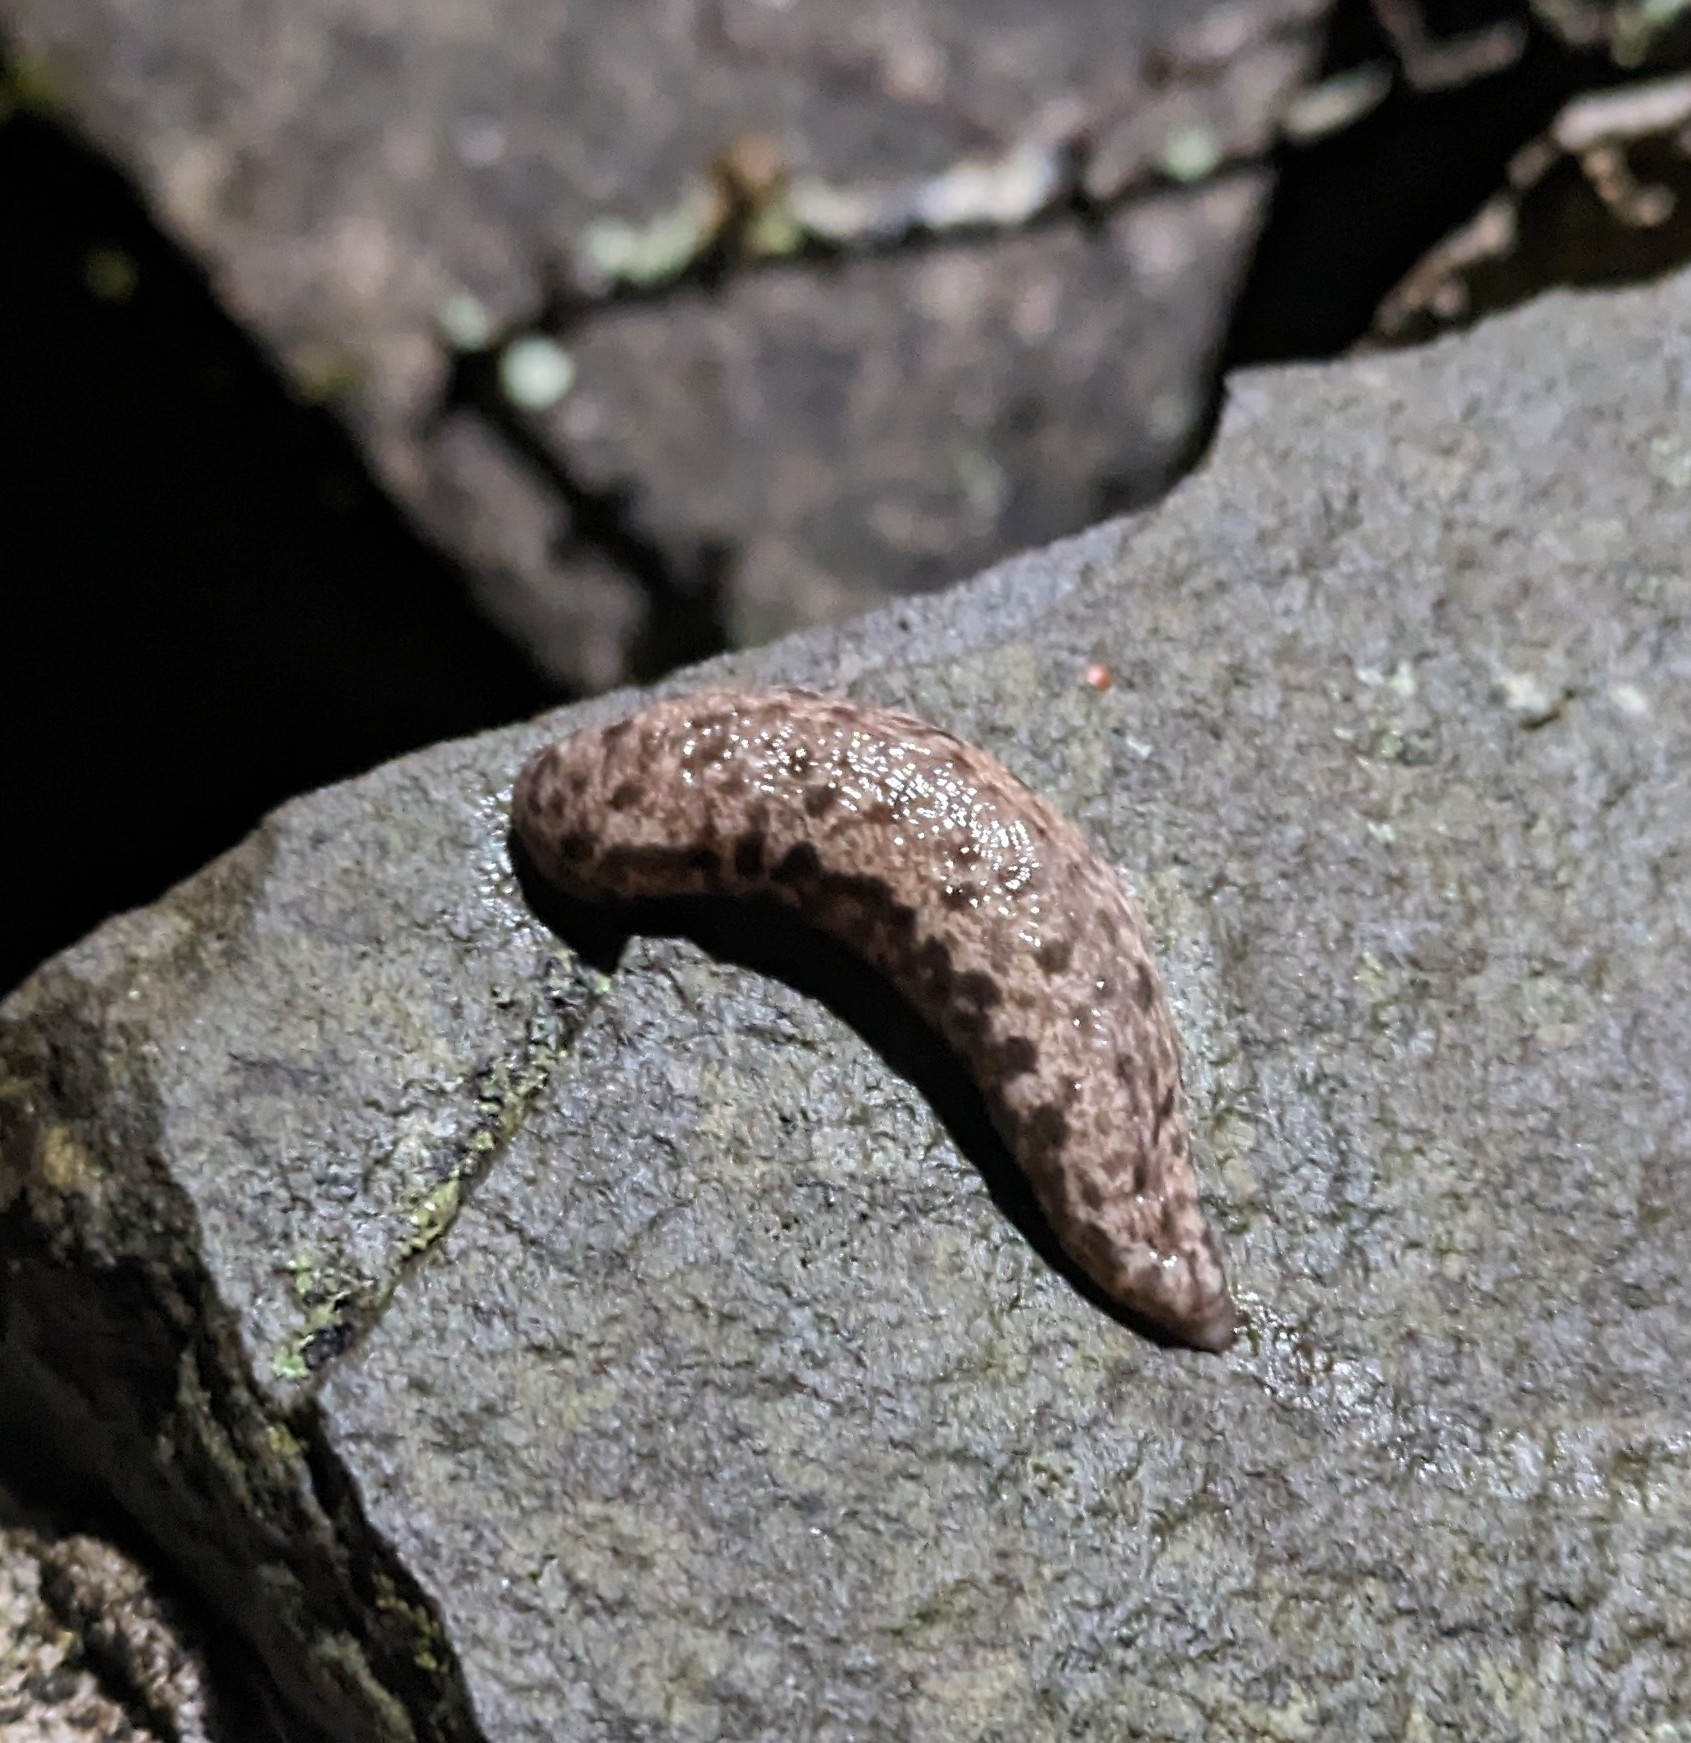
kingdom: Animalia
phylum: Mollusca
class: Gastropoda
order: Stylommatophora
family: Philomycidae
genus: Megapallifera
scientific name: Megapallifera mutabilis
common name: Changeable mantleslug
